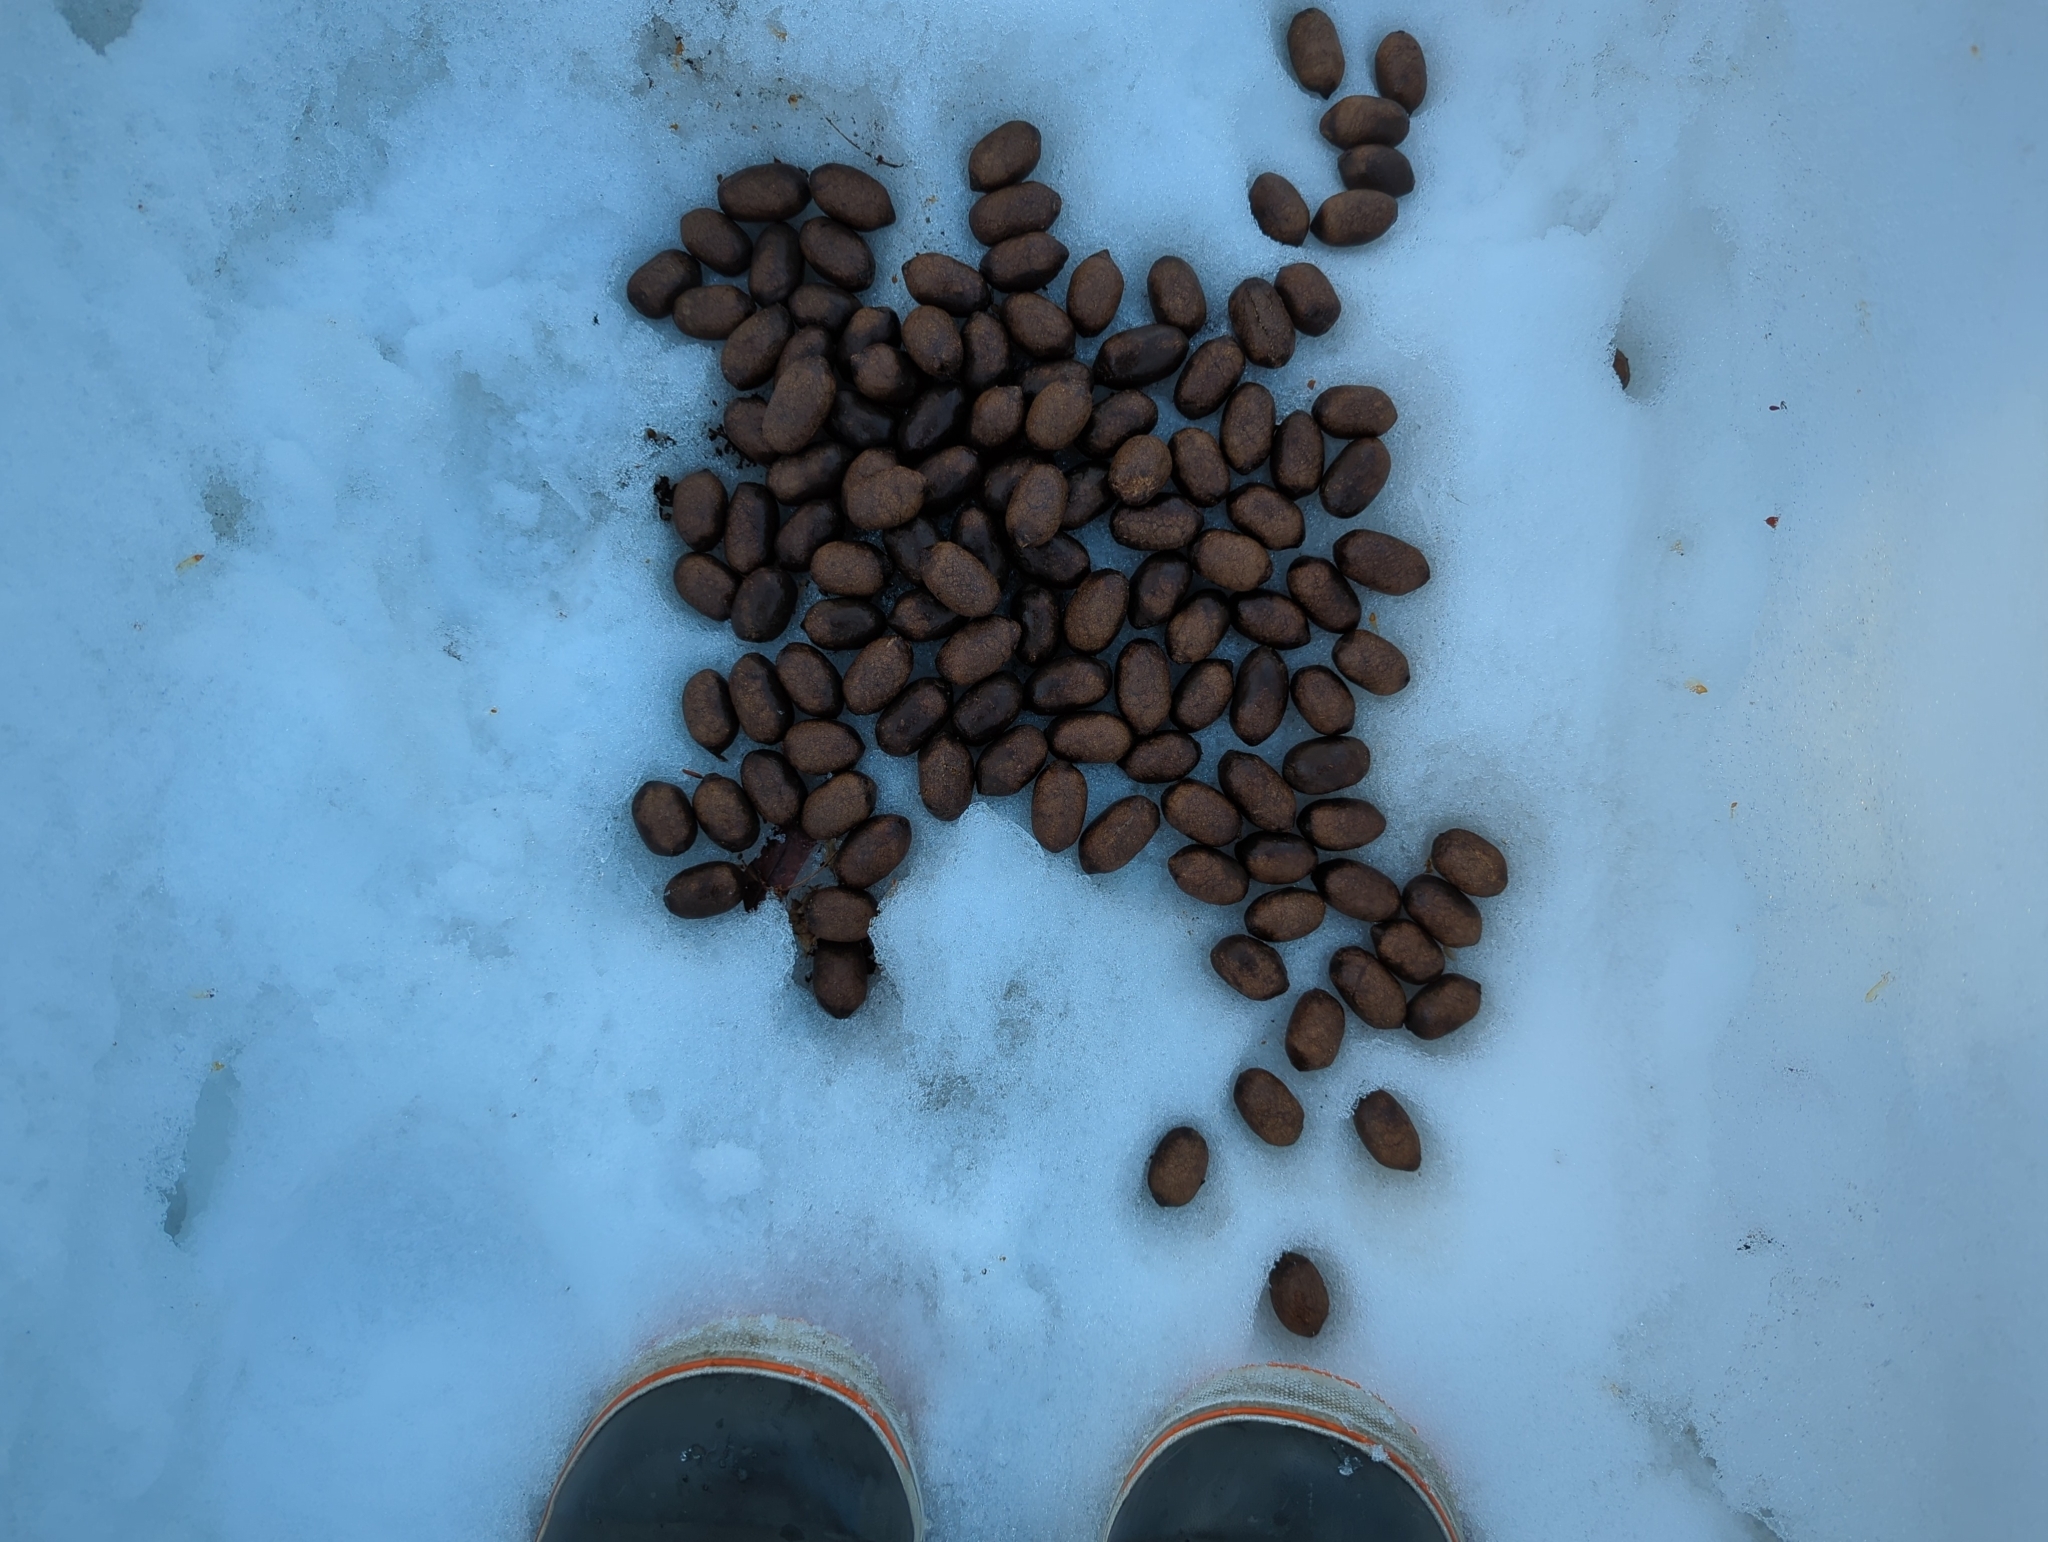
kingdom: Animalia
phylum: Chordata
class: Mammalia
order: Artiodactyla
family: Cervidae
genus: Alces
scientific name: Alces alces
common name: Moose
